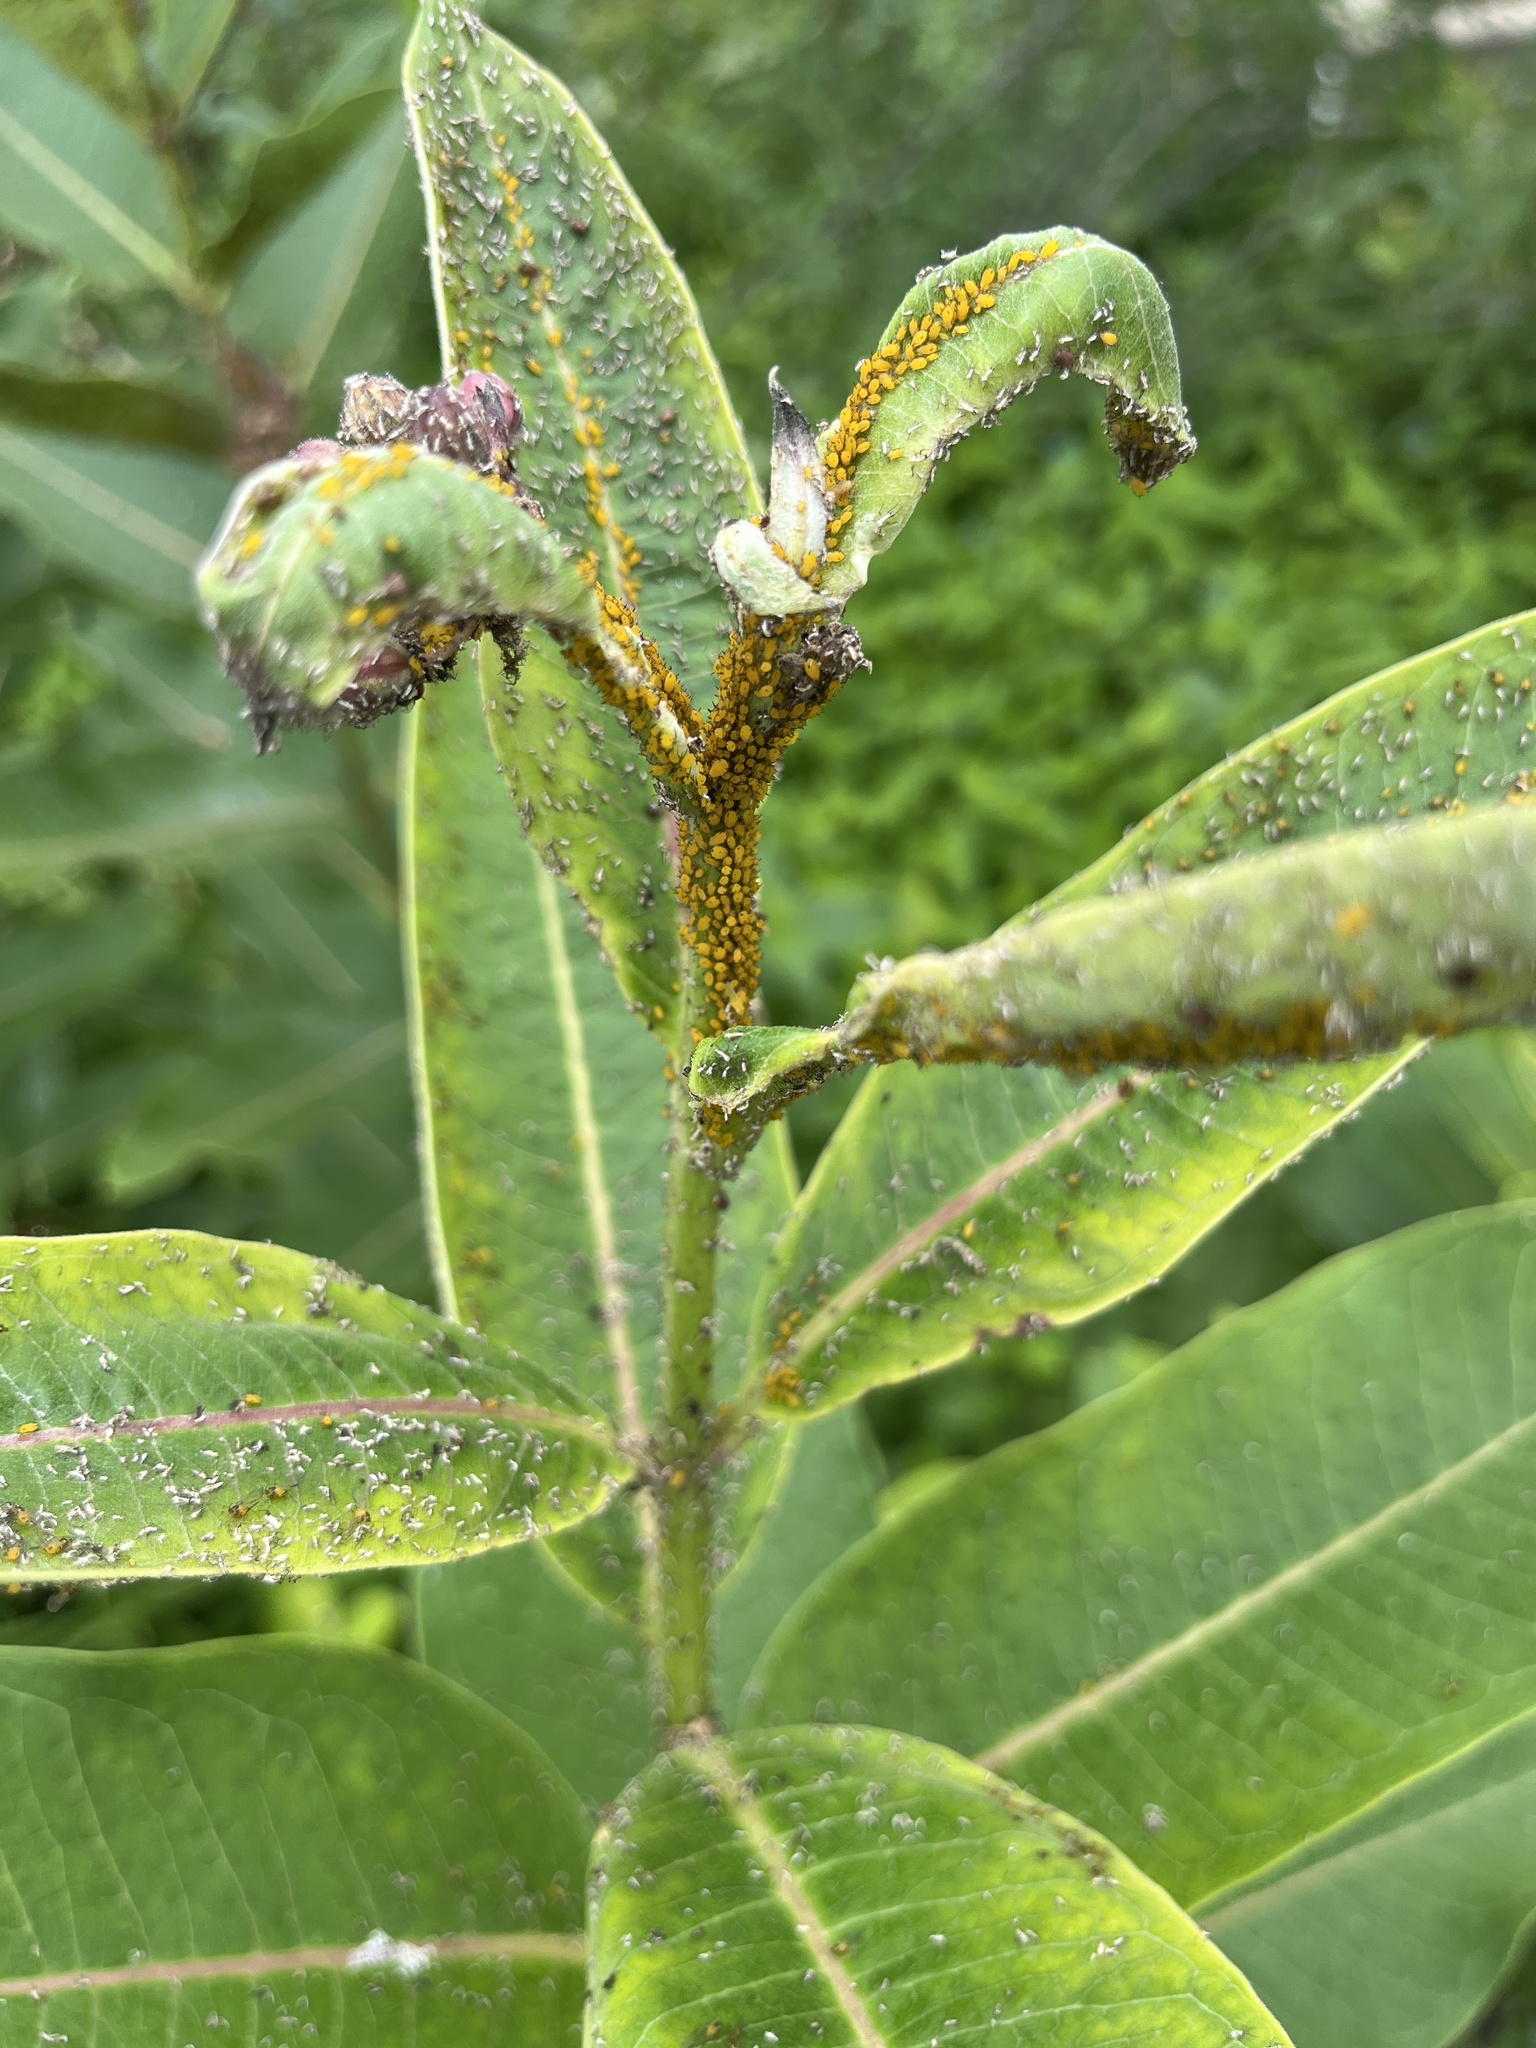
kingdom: Animalia
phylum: Arthropoda
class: Insecta
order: Hemiptera
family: Aphididae
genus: Aphis
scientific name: Aphis nerii
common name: Oleander aphid
